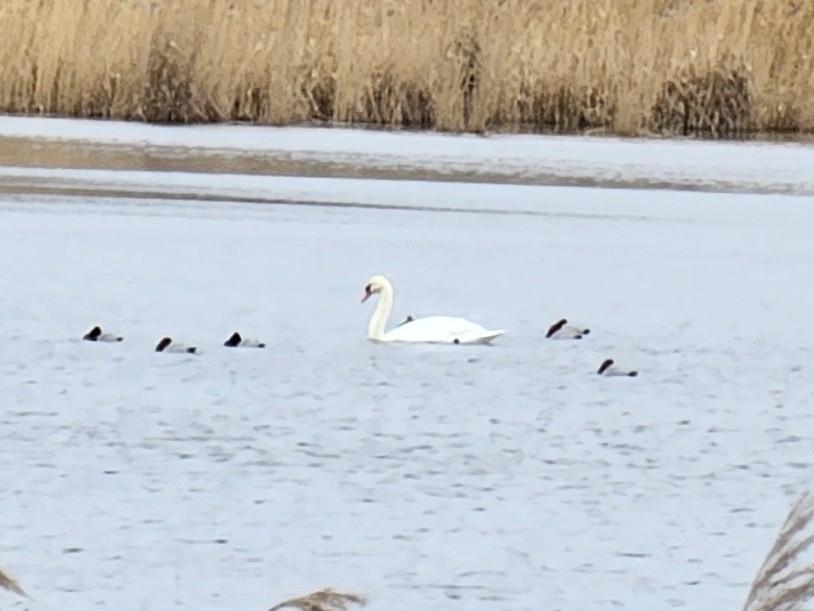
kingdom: Animalia
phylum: Chordata
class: Aves
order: Anseriformes
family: Anatidae
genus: Aythya
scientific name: Aythya ferina
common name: Common pochard
